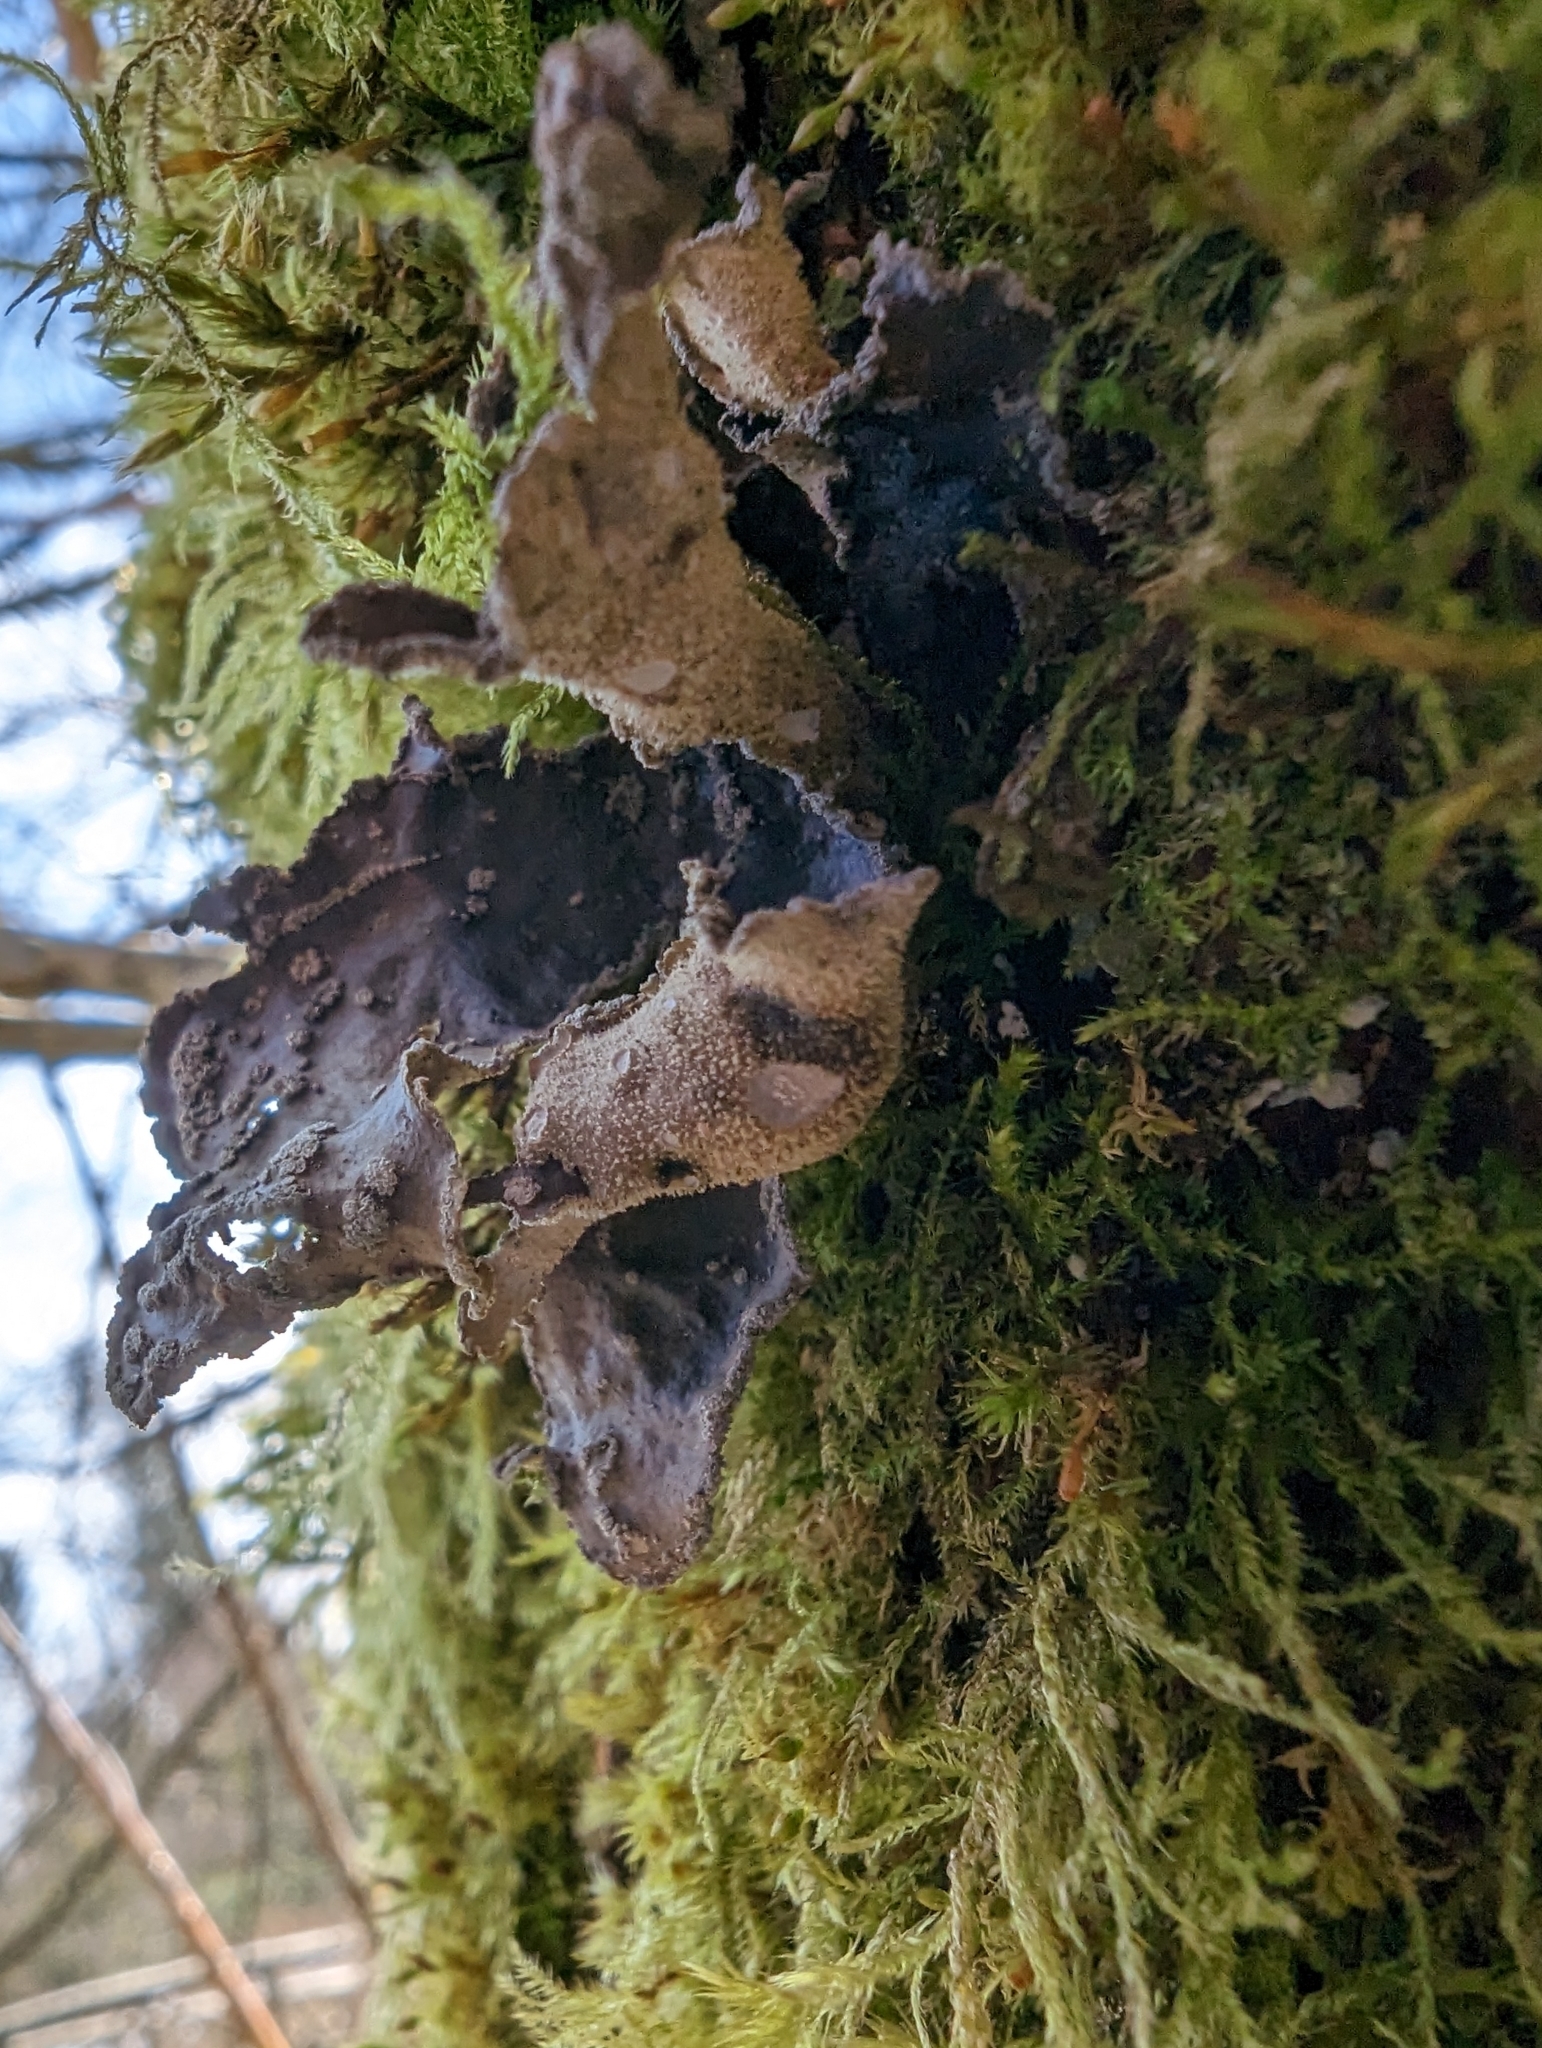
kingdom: Fungi
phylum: Ascomycota
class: Lecanoromycetes
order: Peltigerales
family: Lobariaceae
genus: Sticta
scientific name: Sticta limbata
